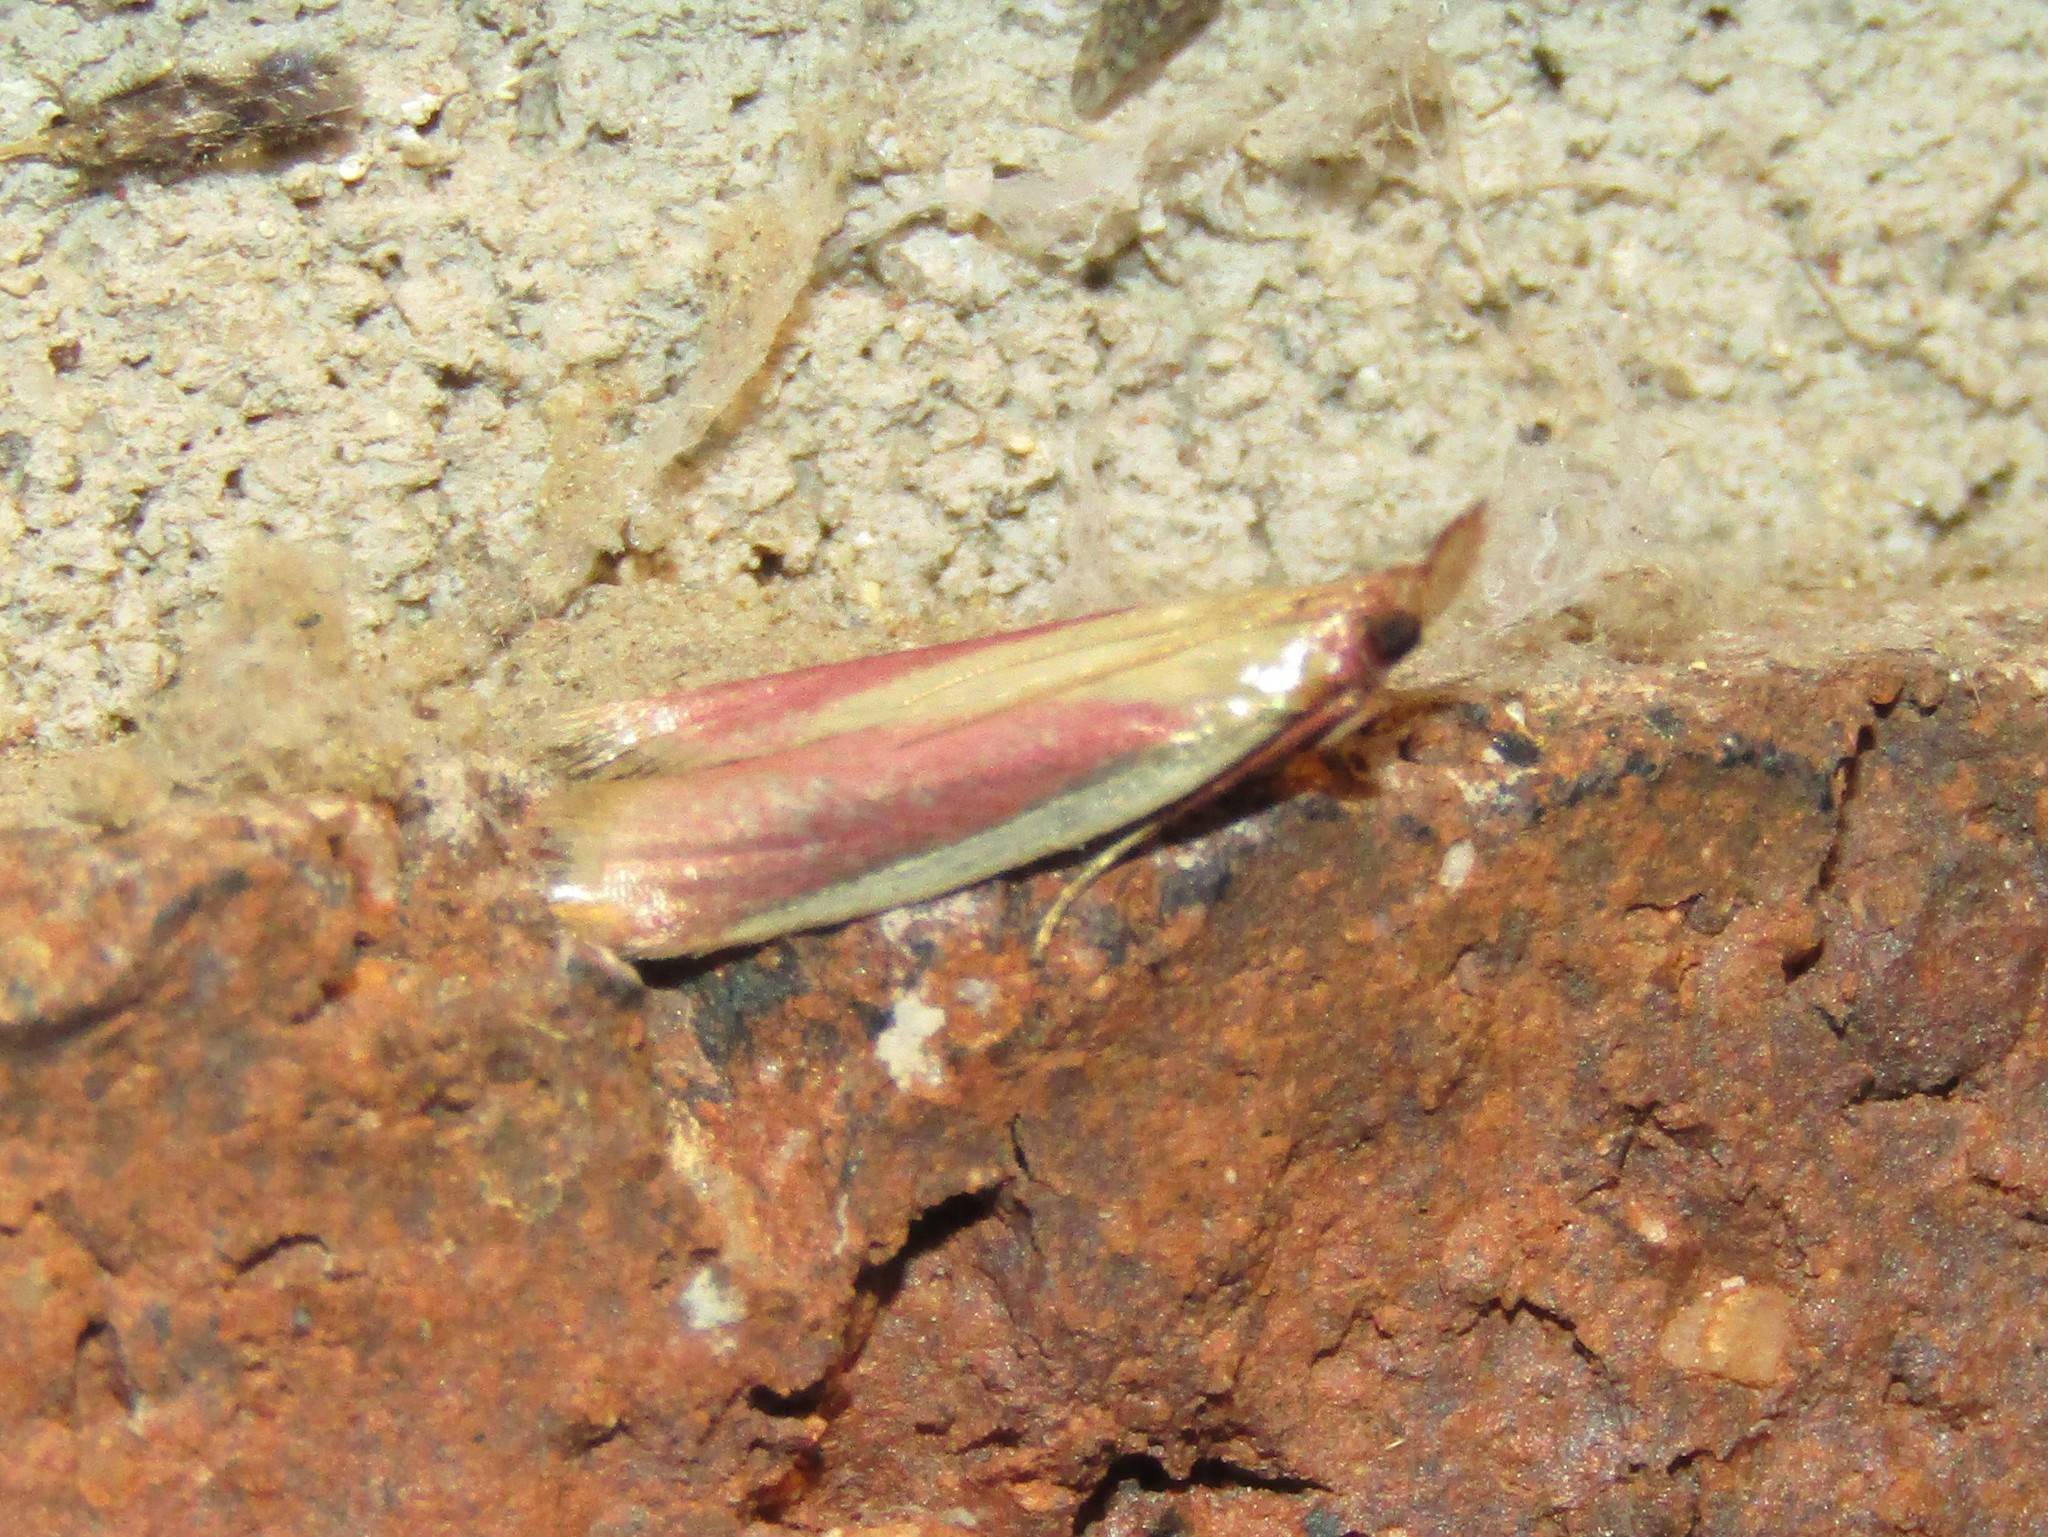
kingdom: Animalia
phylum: Arthropoda
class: Insecta
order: Lepidoptera
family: Pyralidae
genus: Peoria
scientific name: Peoria approximella
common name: Carmine snout
